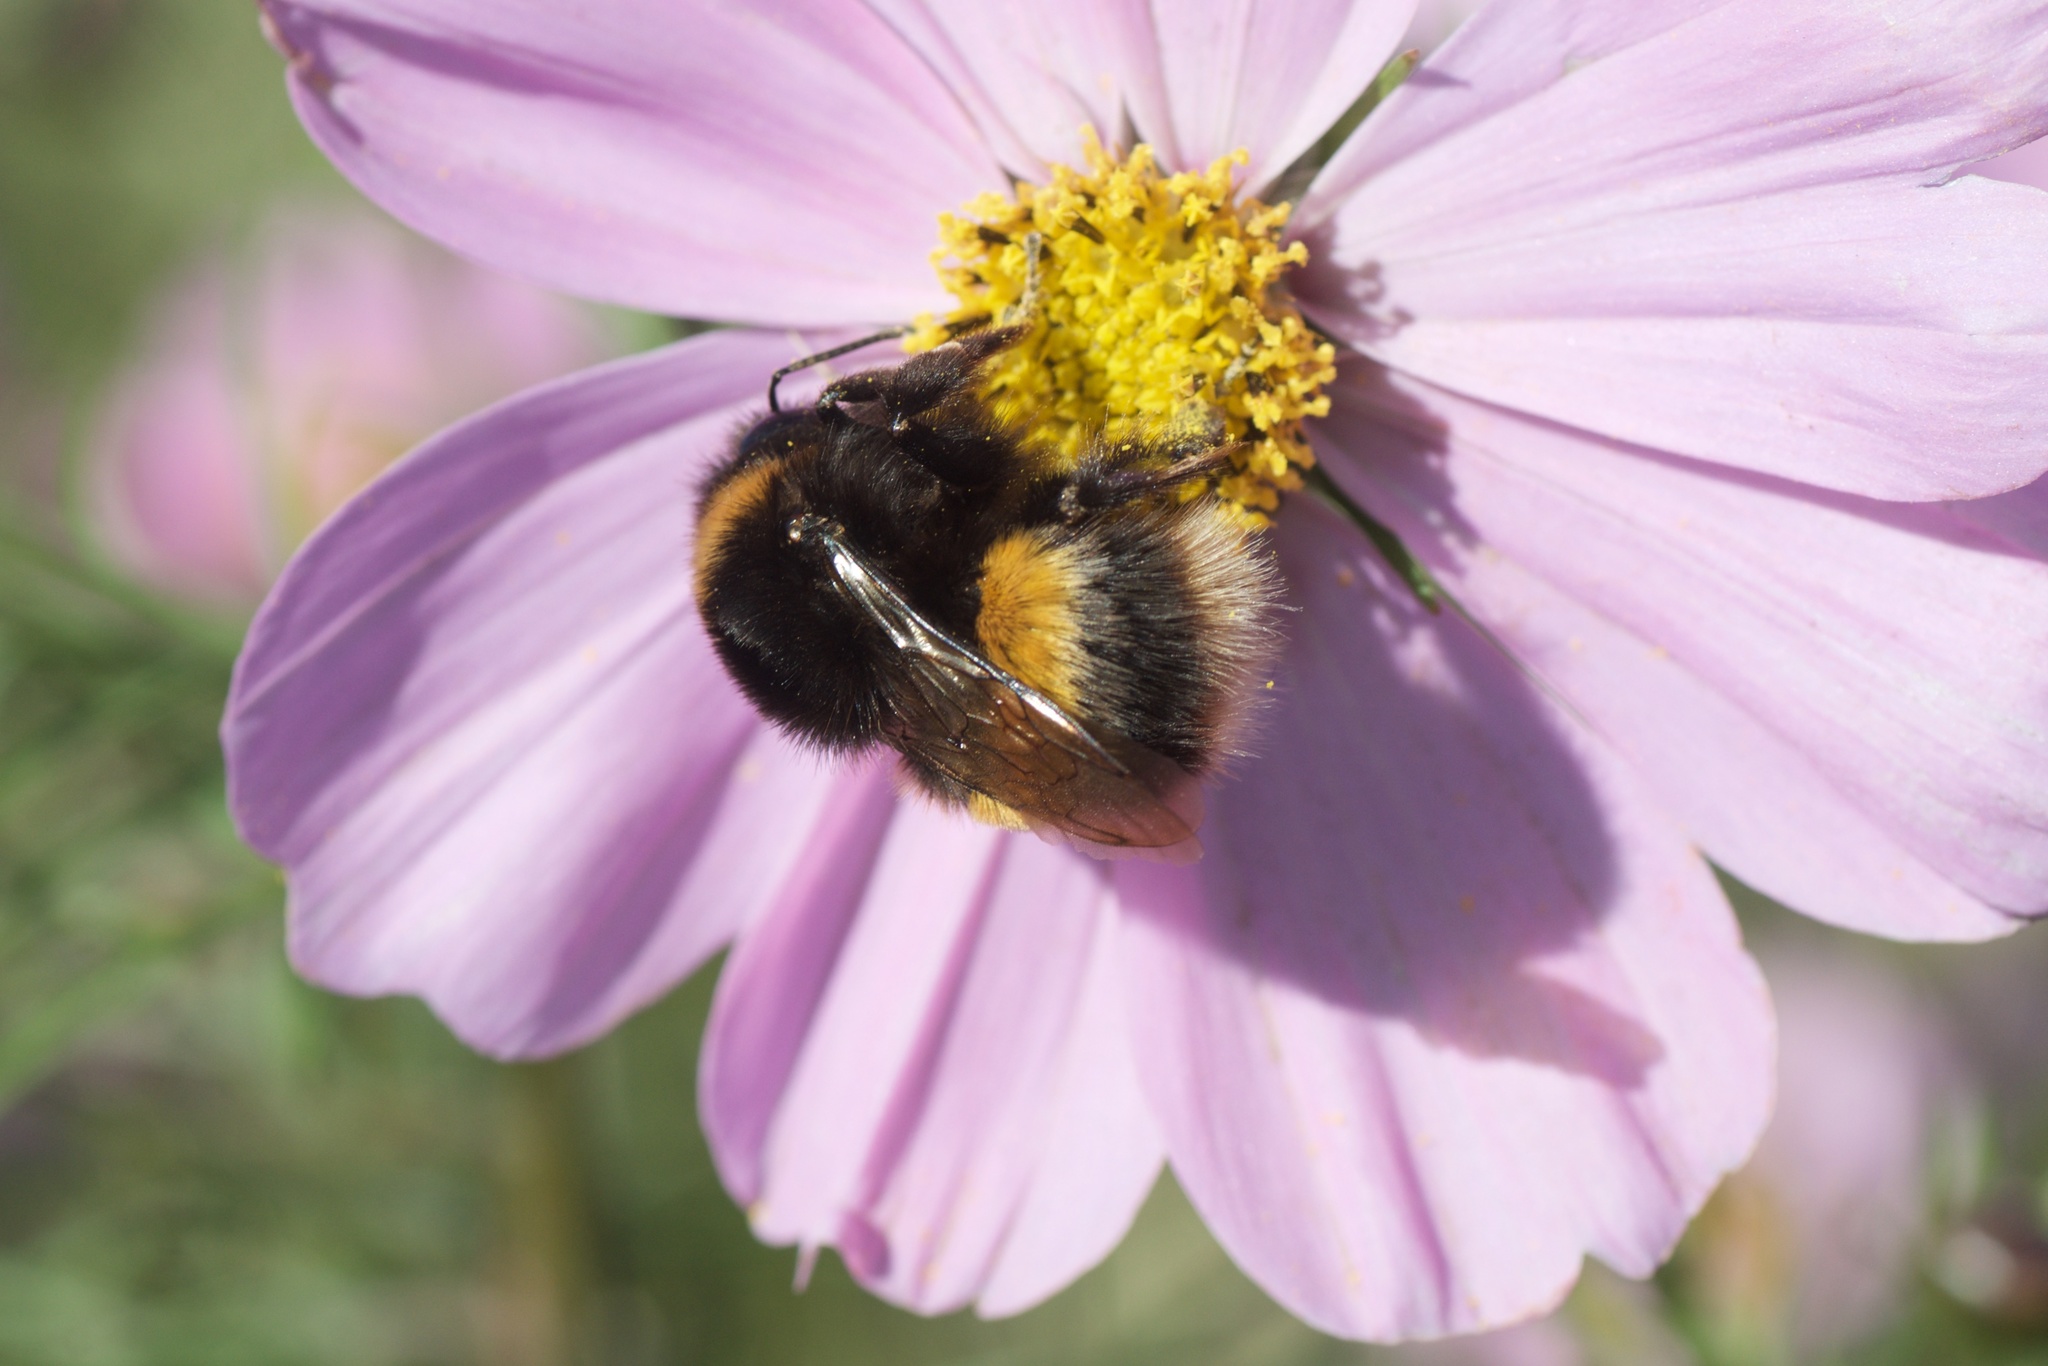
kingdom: Animalia
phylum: Arthropoda
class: Insecta
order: Hymenoptera
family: Apidae
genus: Bombus
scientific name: Bombus terrestris
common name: Buff-tailed bumblebee
